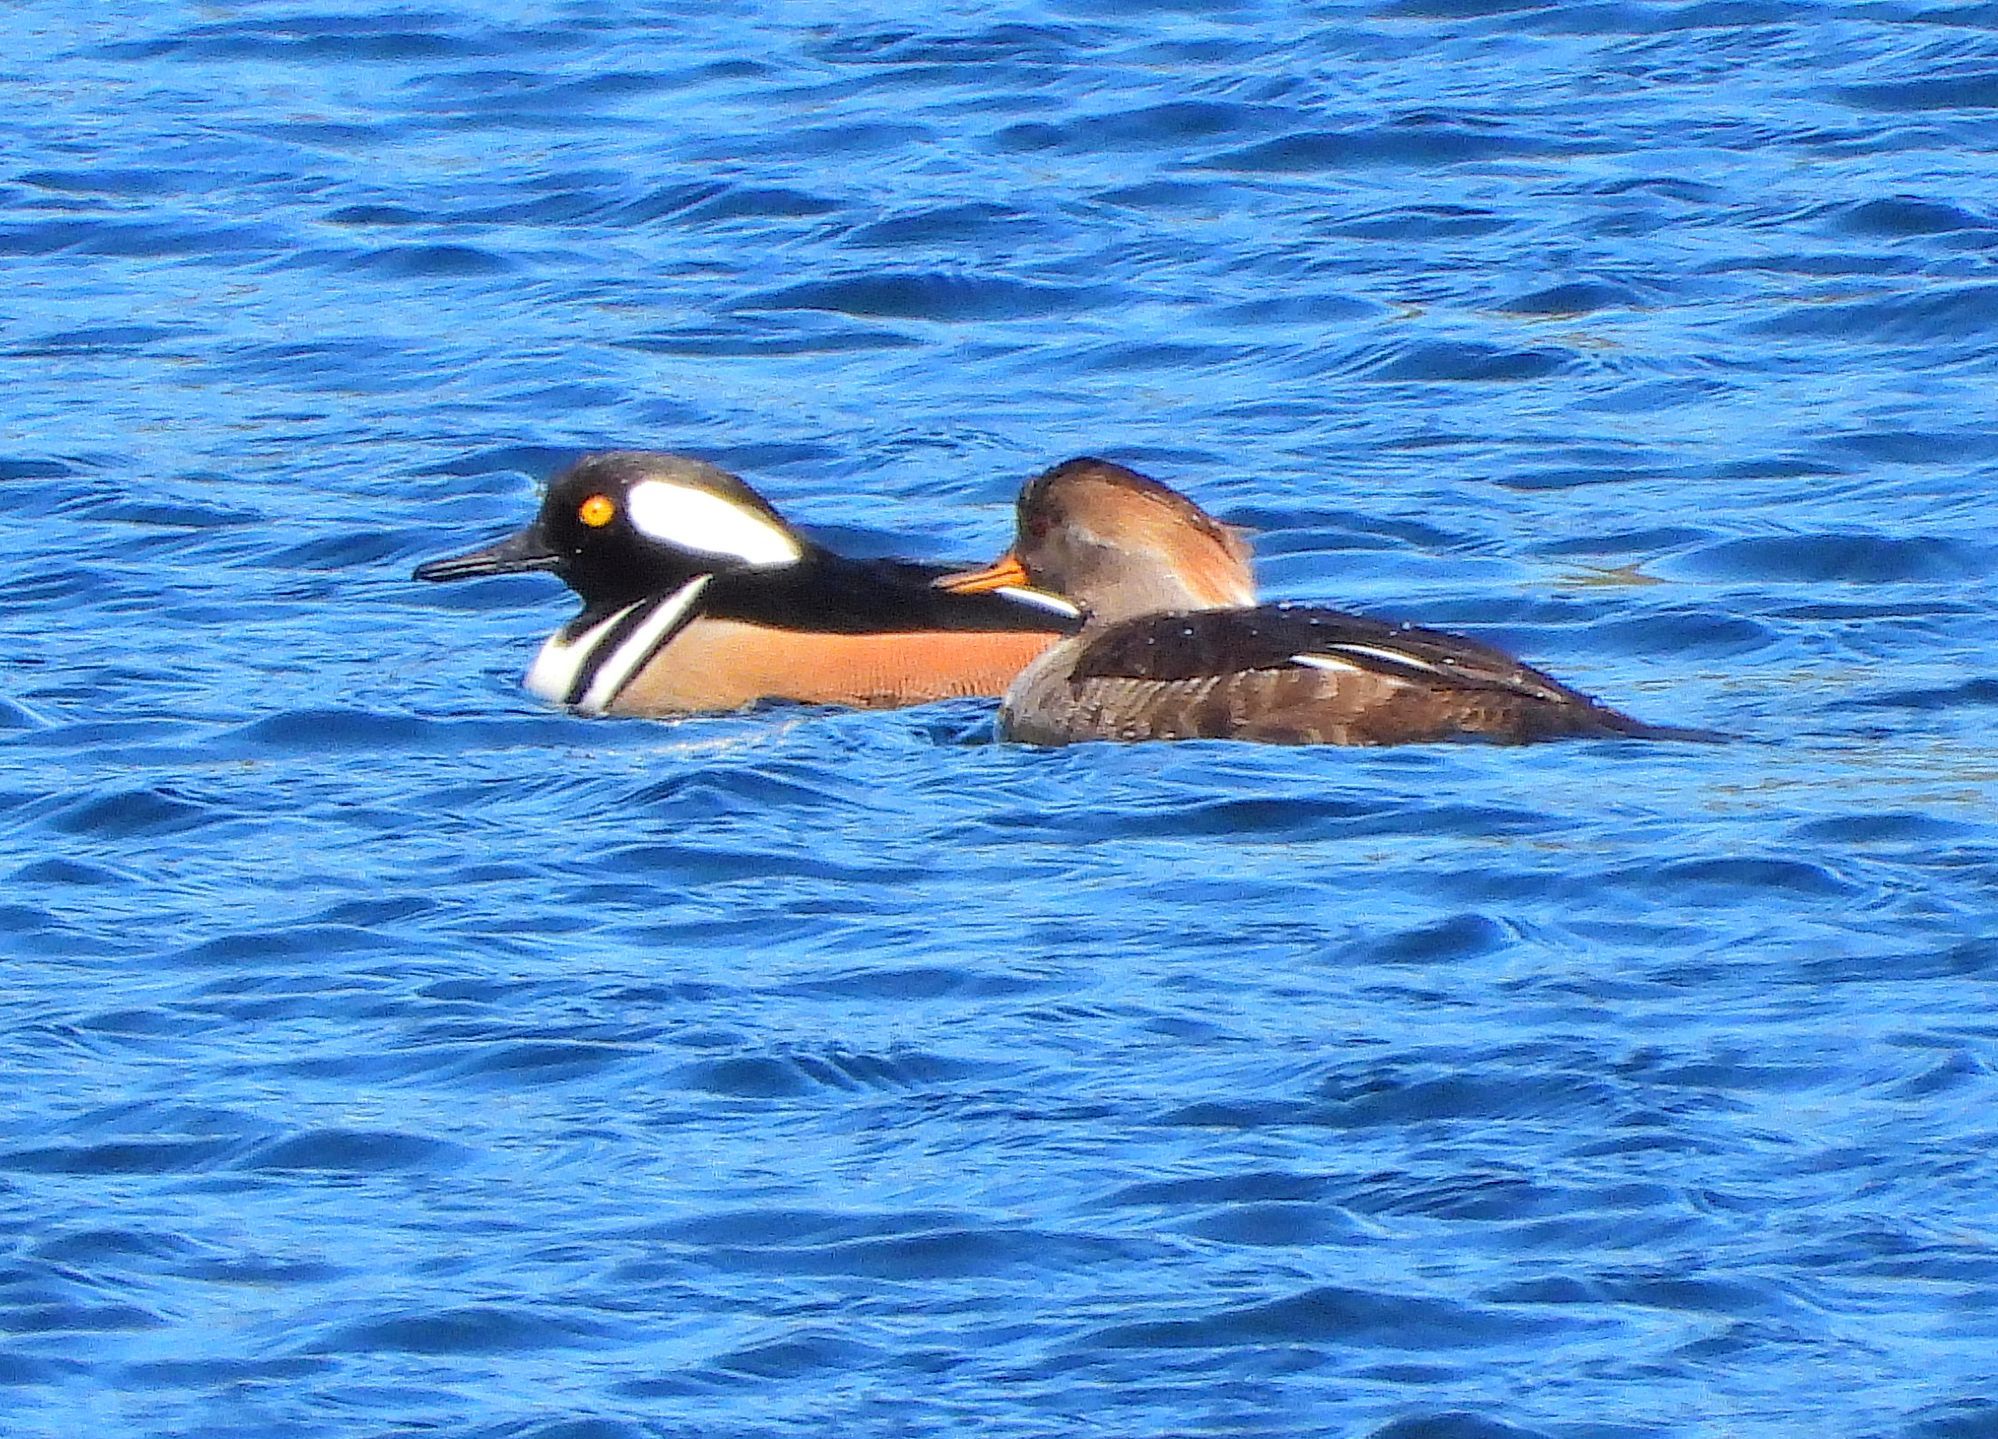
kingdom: Animalia
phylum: Chordata
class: Aves
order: Anseriformes
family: Anatidae
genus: Lophodytes
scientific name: Lophodytes cucullatus
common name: Hooded merganser
